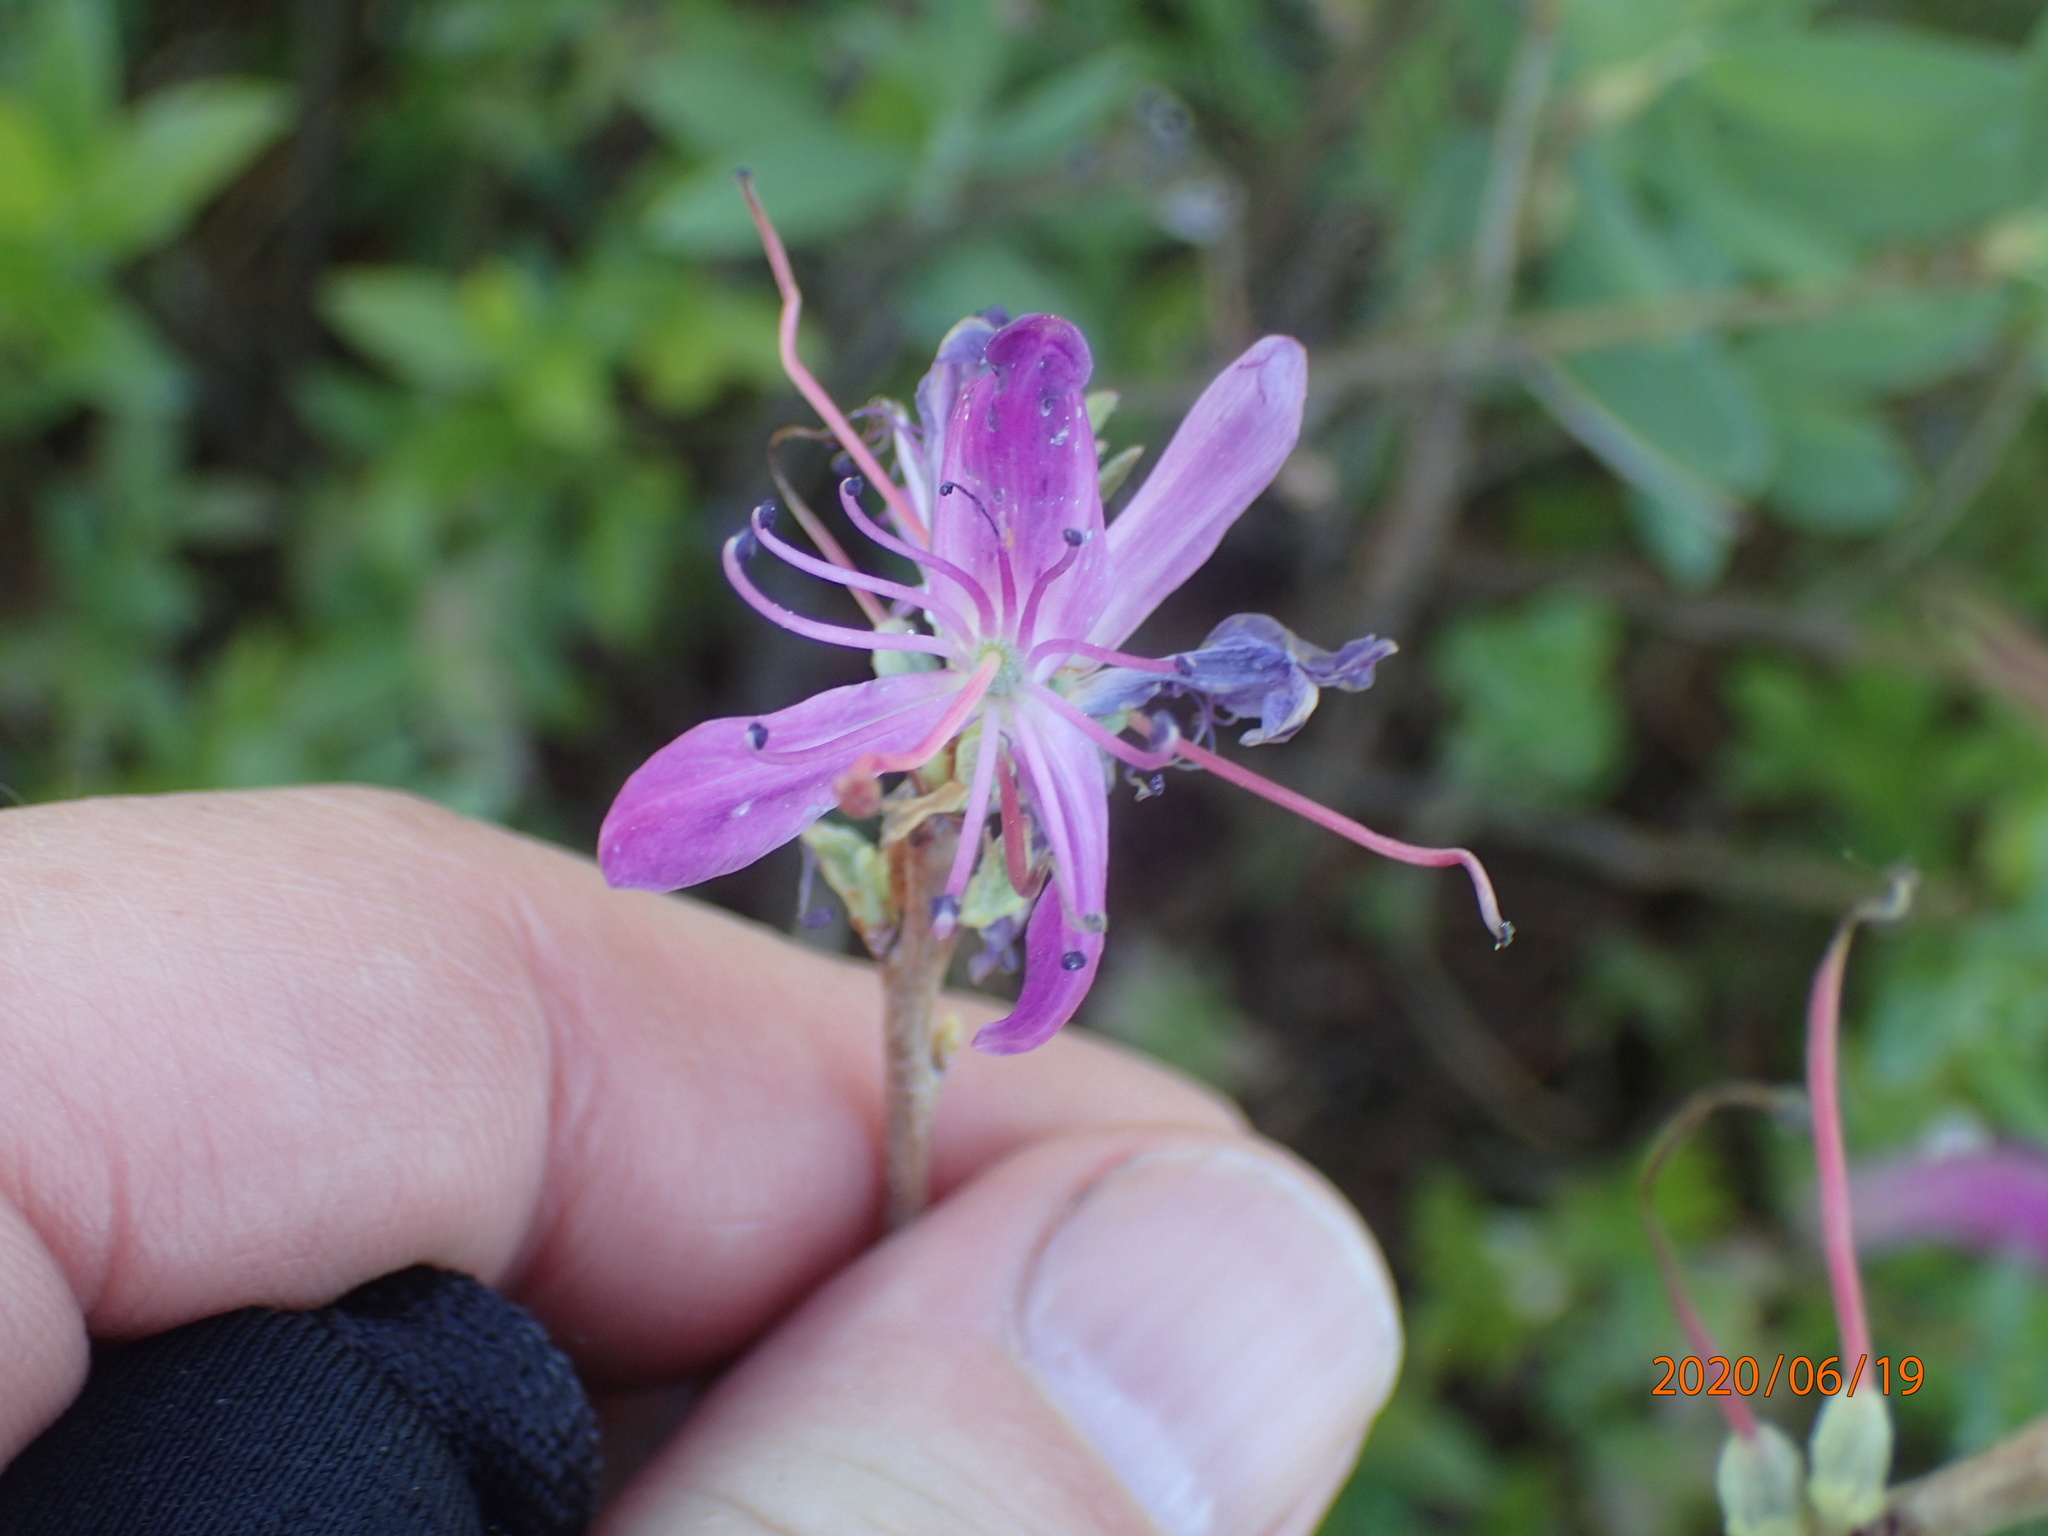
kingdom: Plantae
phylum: Tracheophyta
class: Magnoliopsida
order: Ericales
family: Ericaceae
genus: Rhododendron
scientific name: Rhododendron canadense
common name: Rhodora
